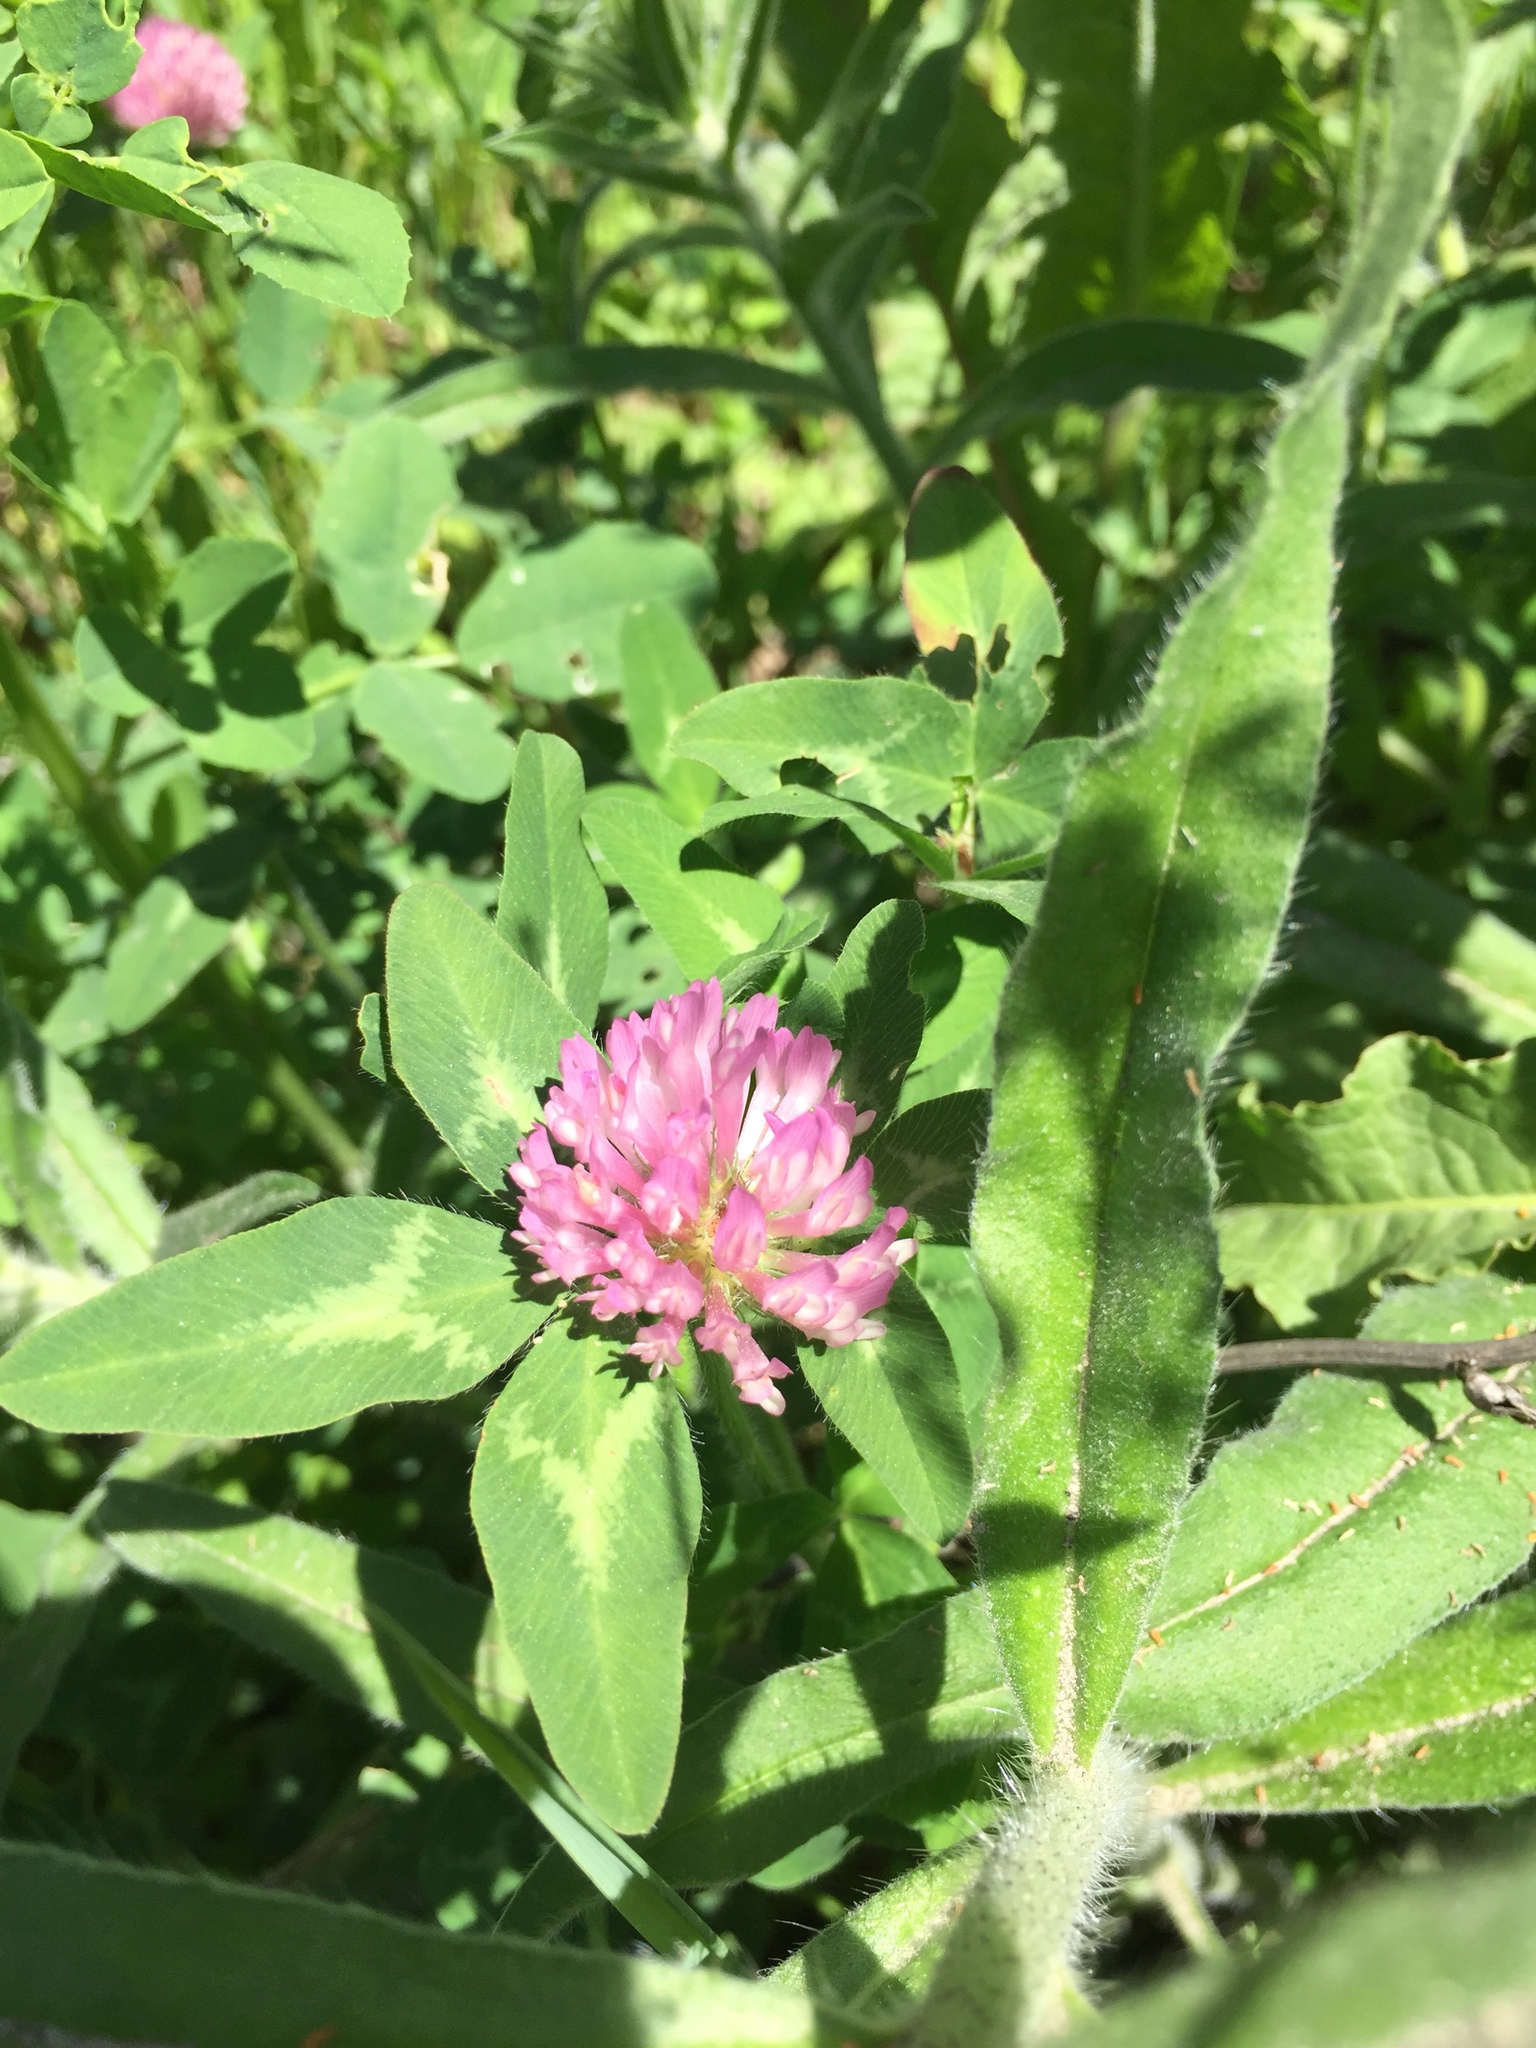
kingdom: Plantae
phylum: Tracheophyta
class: Magnoliopsida
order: Fabales
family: Fabaceae
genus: Trifolium
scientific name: Trifolium pratense
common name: Red clover
